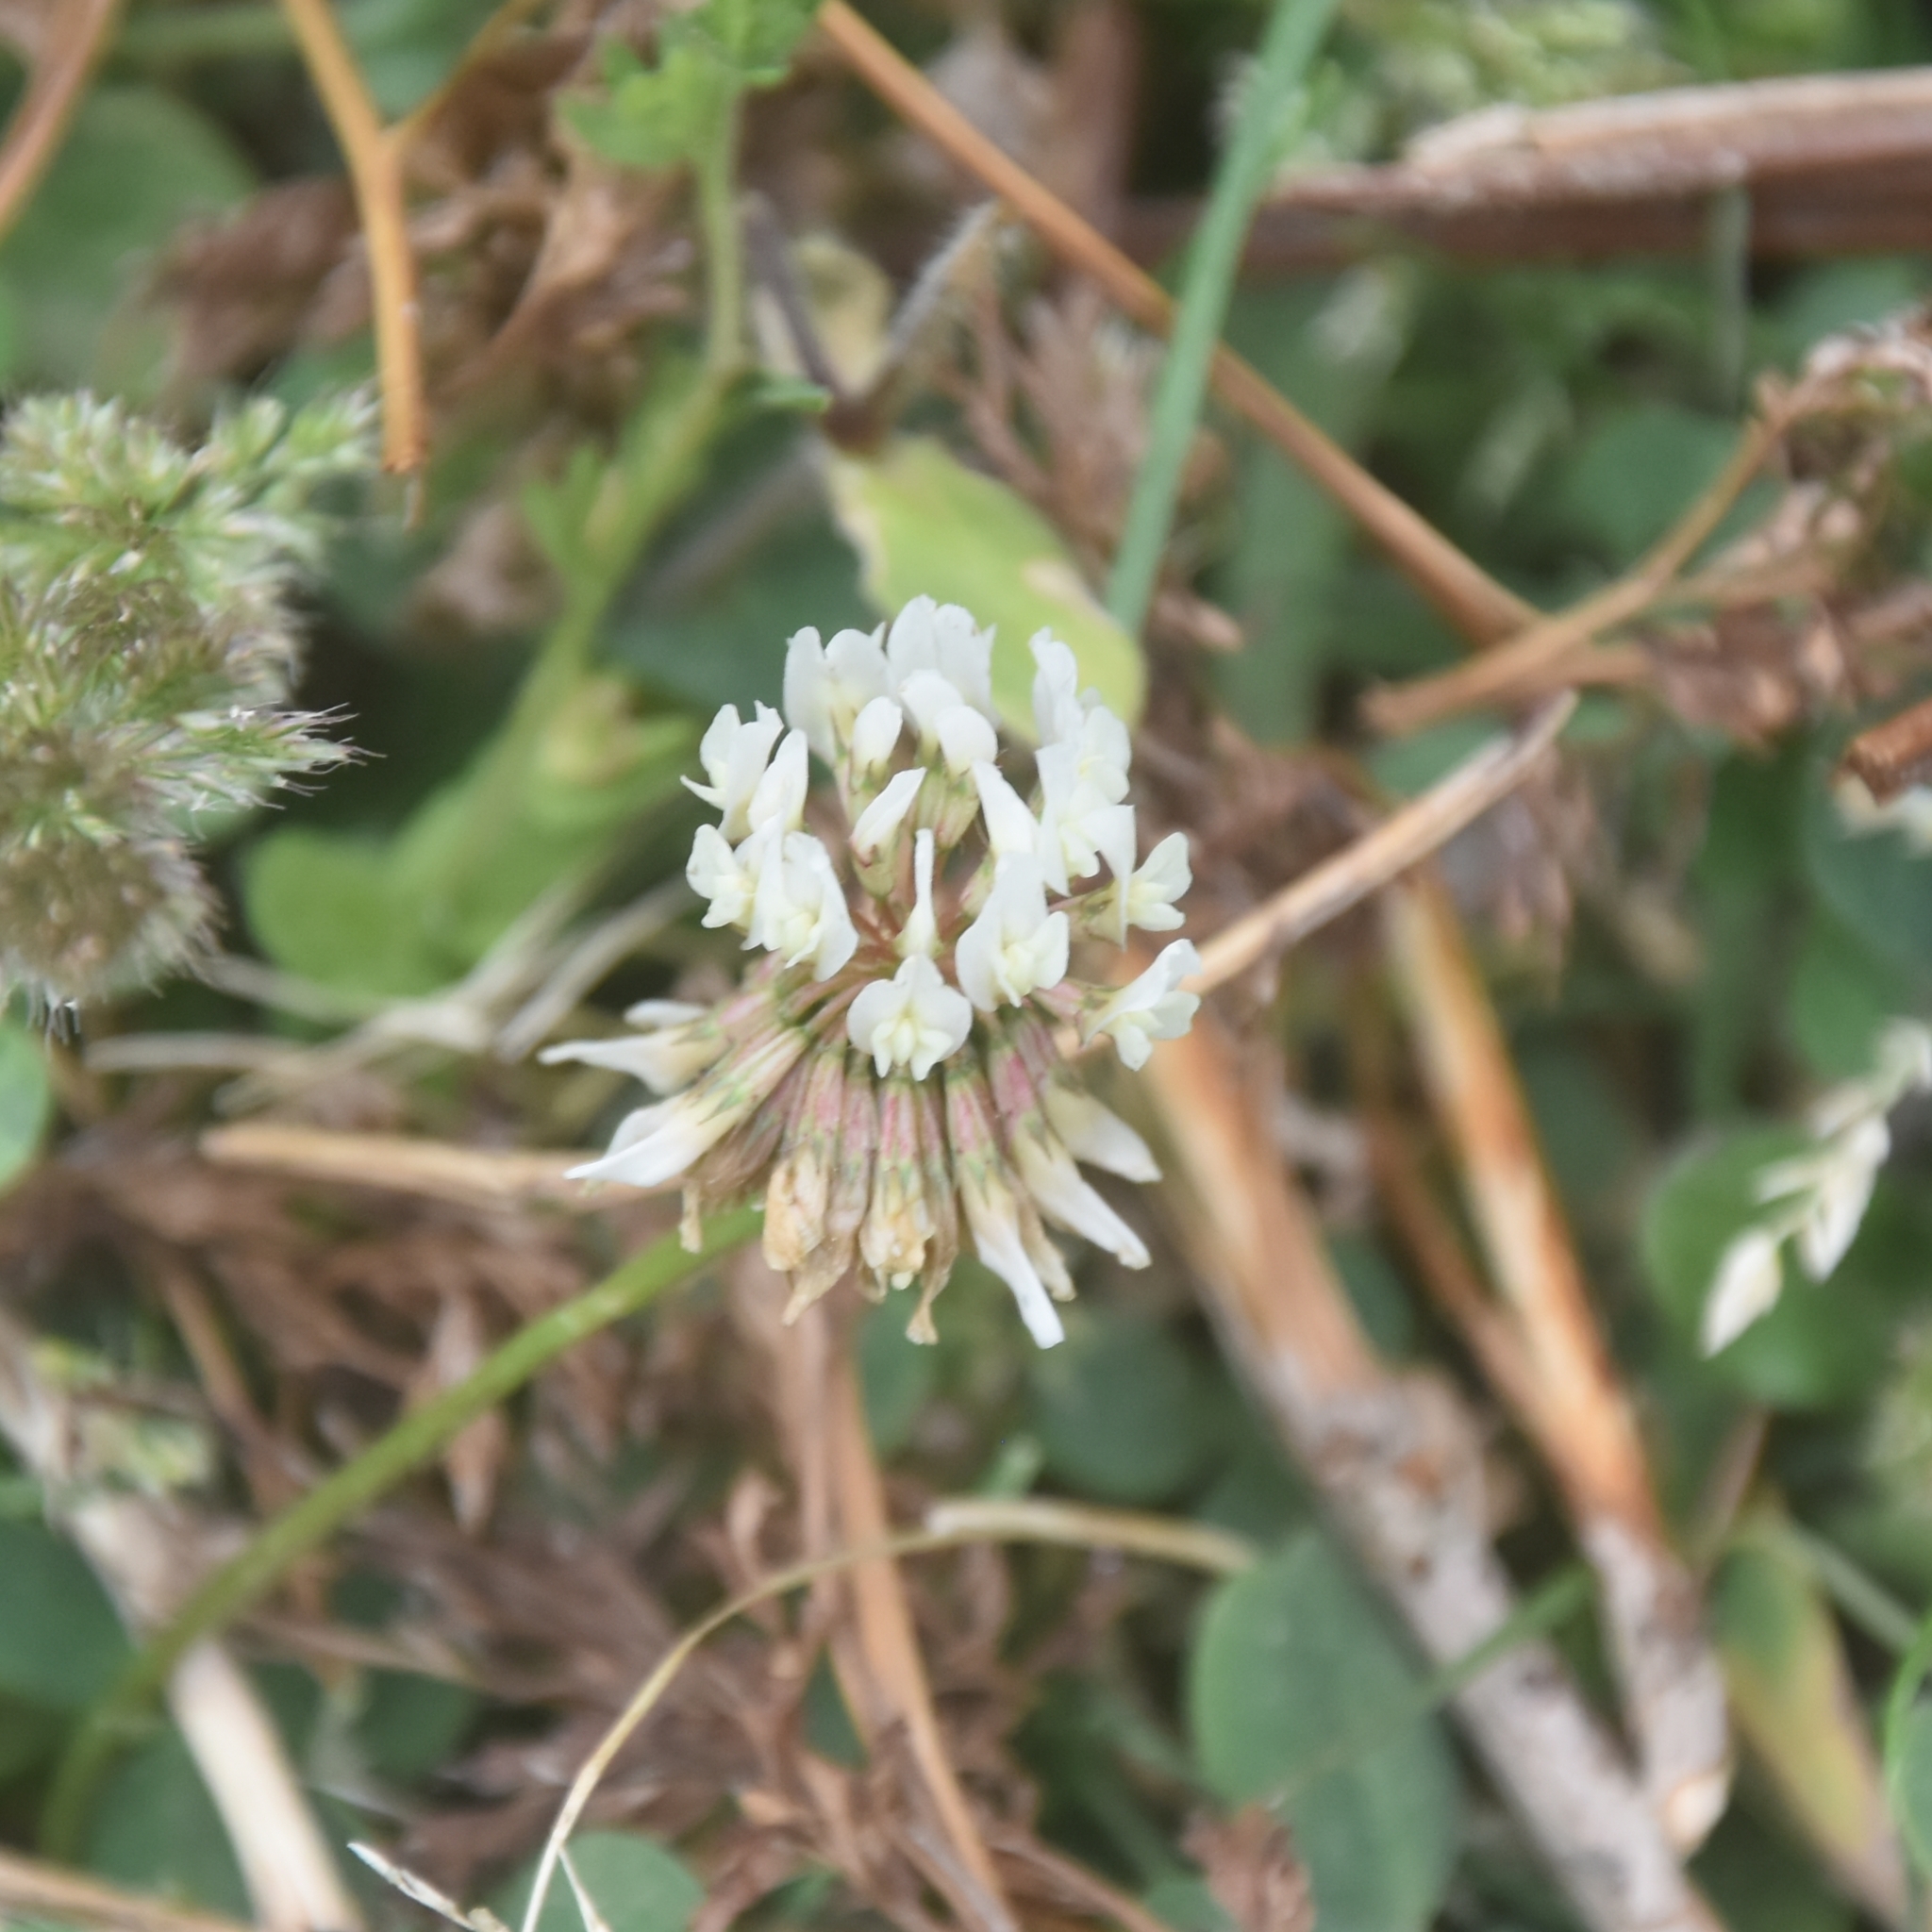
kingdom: Plantae
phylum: Tracheophyta
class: Magnoliopsida
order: Fabales
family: Fabaceae
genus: Trifolium
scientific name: Trifolium repens
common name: White clover
